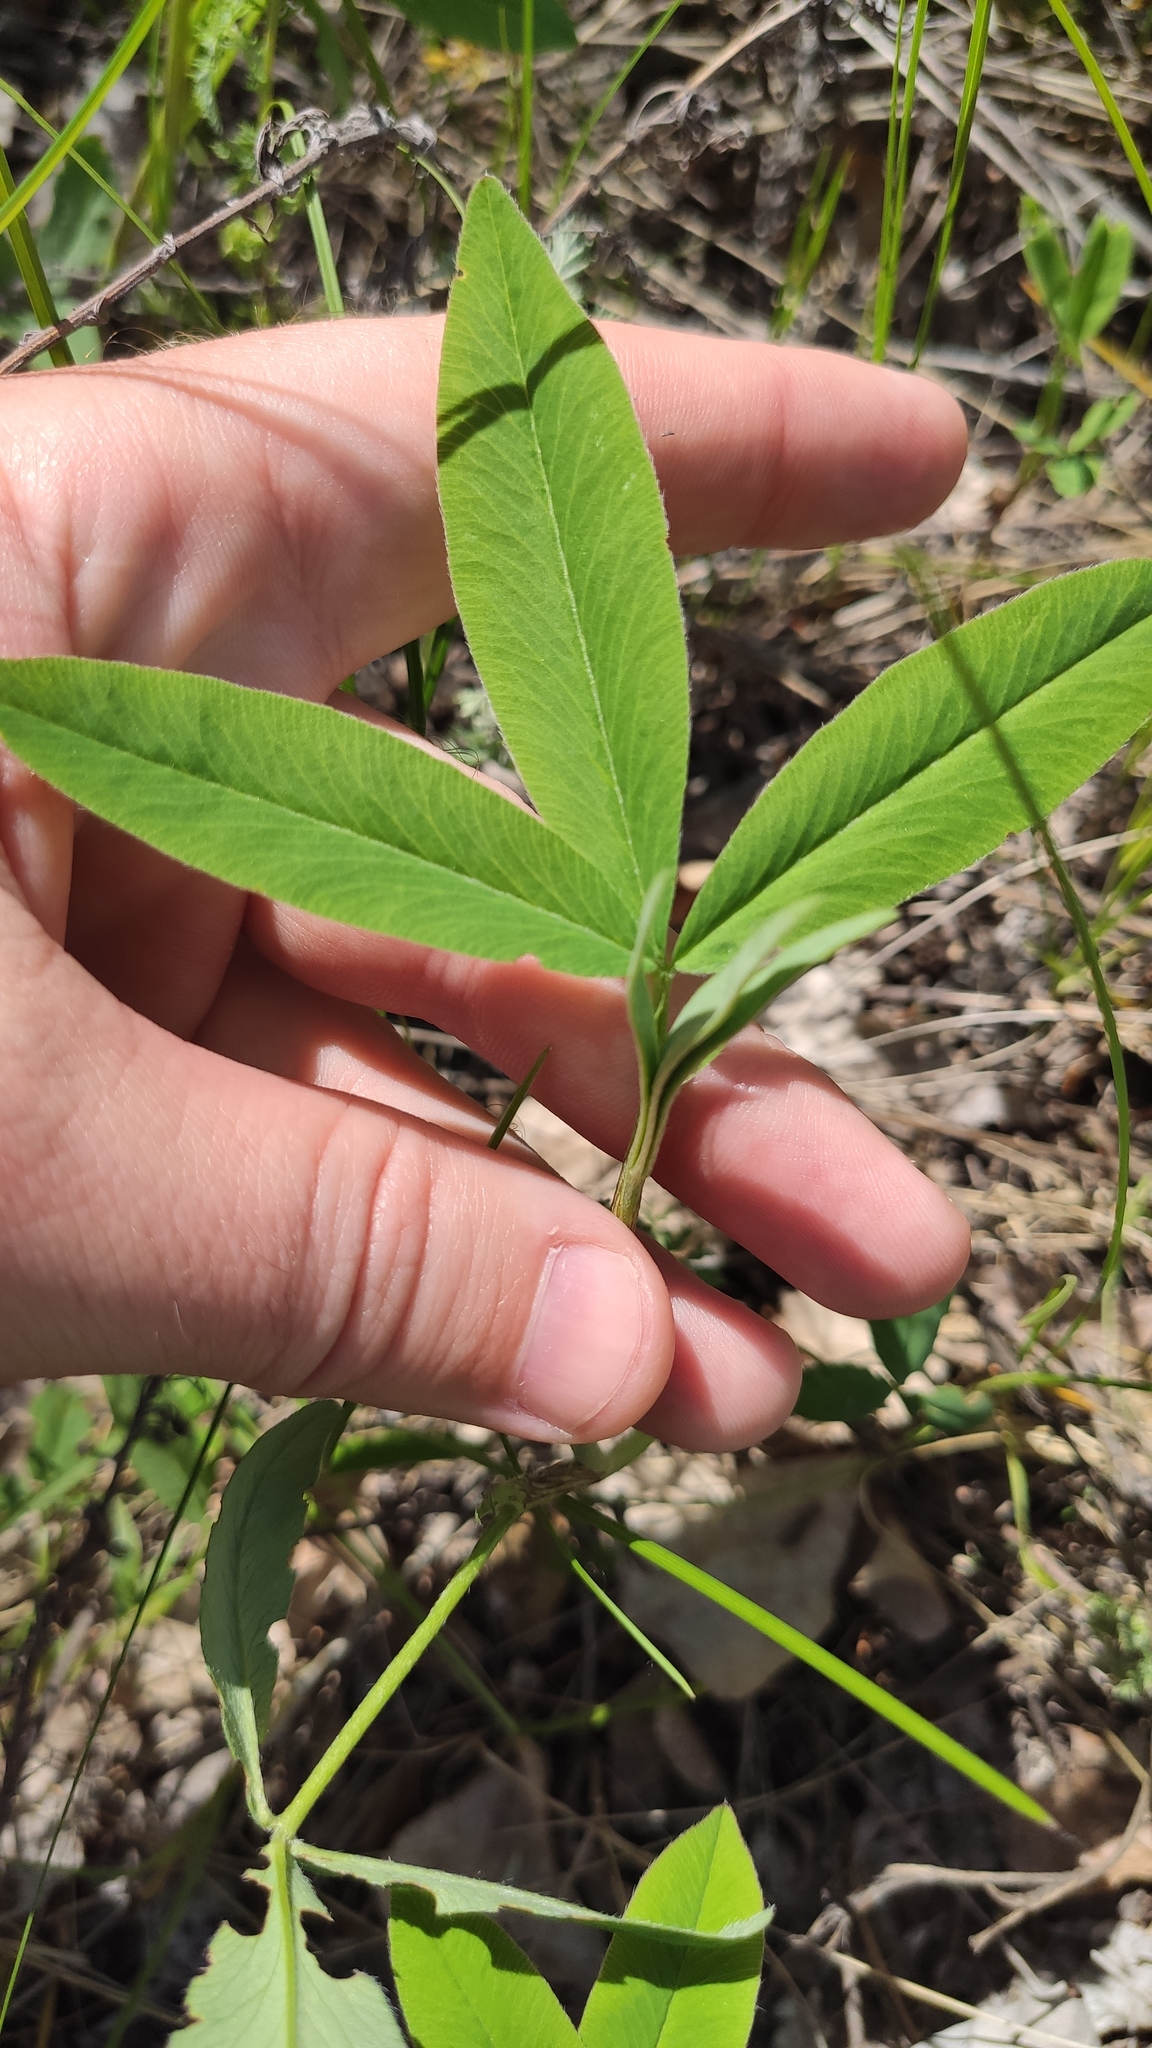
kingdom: Plantae
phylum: Tracheophyta
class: Magnoliopsida
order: Fabales
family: Fabaceae
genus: Trifolium
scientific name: Trifolium montanum
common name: Mountain clover
